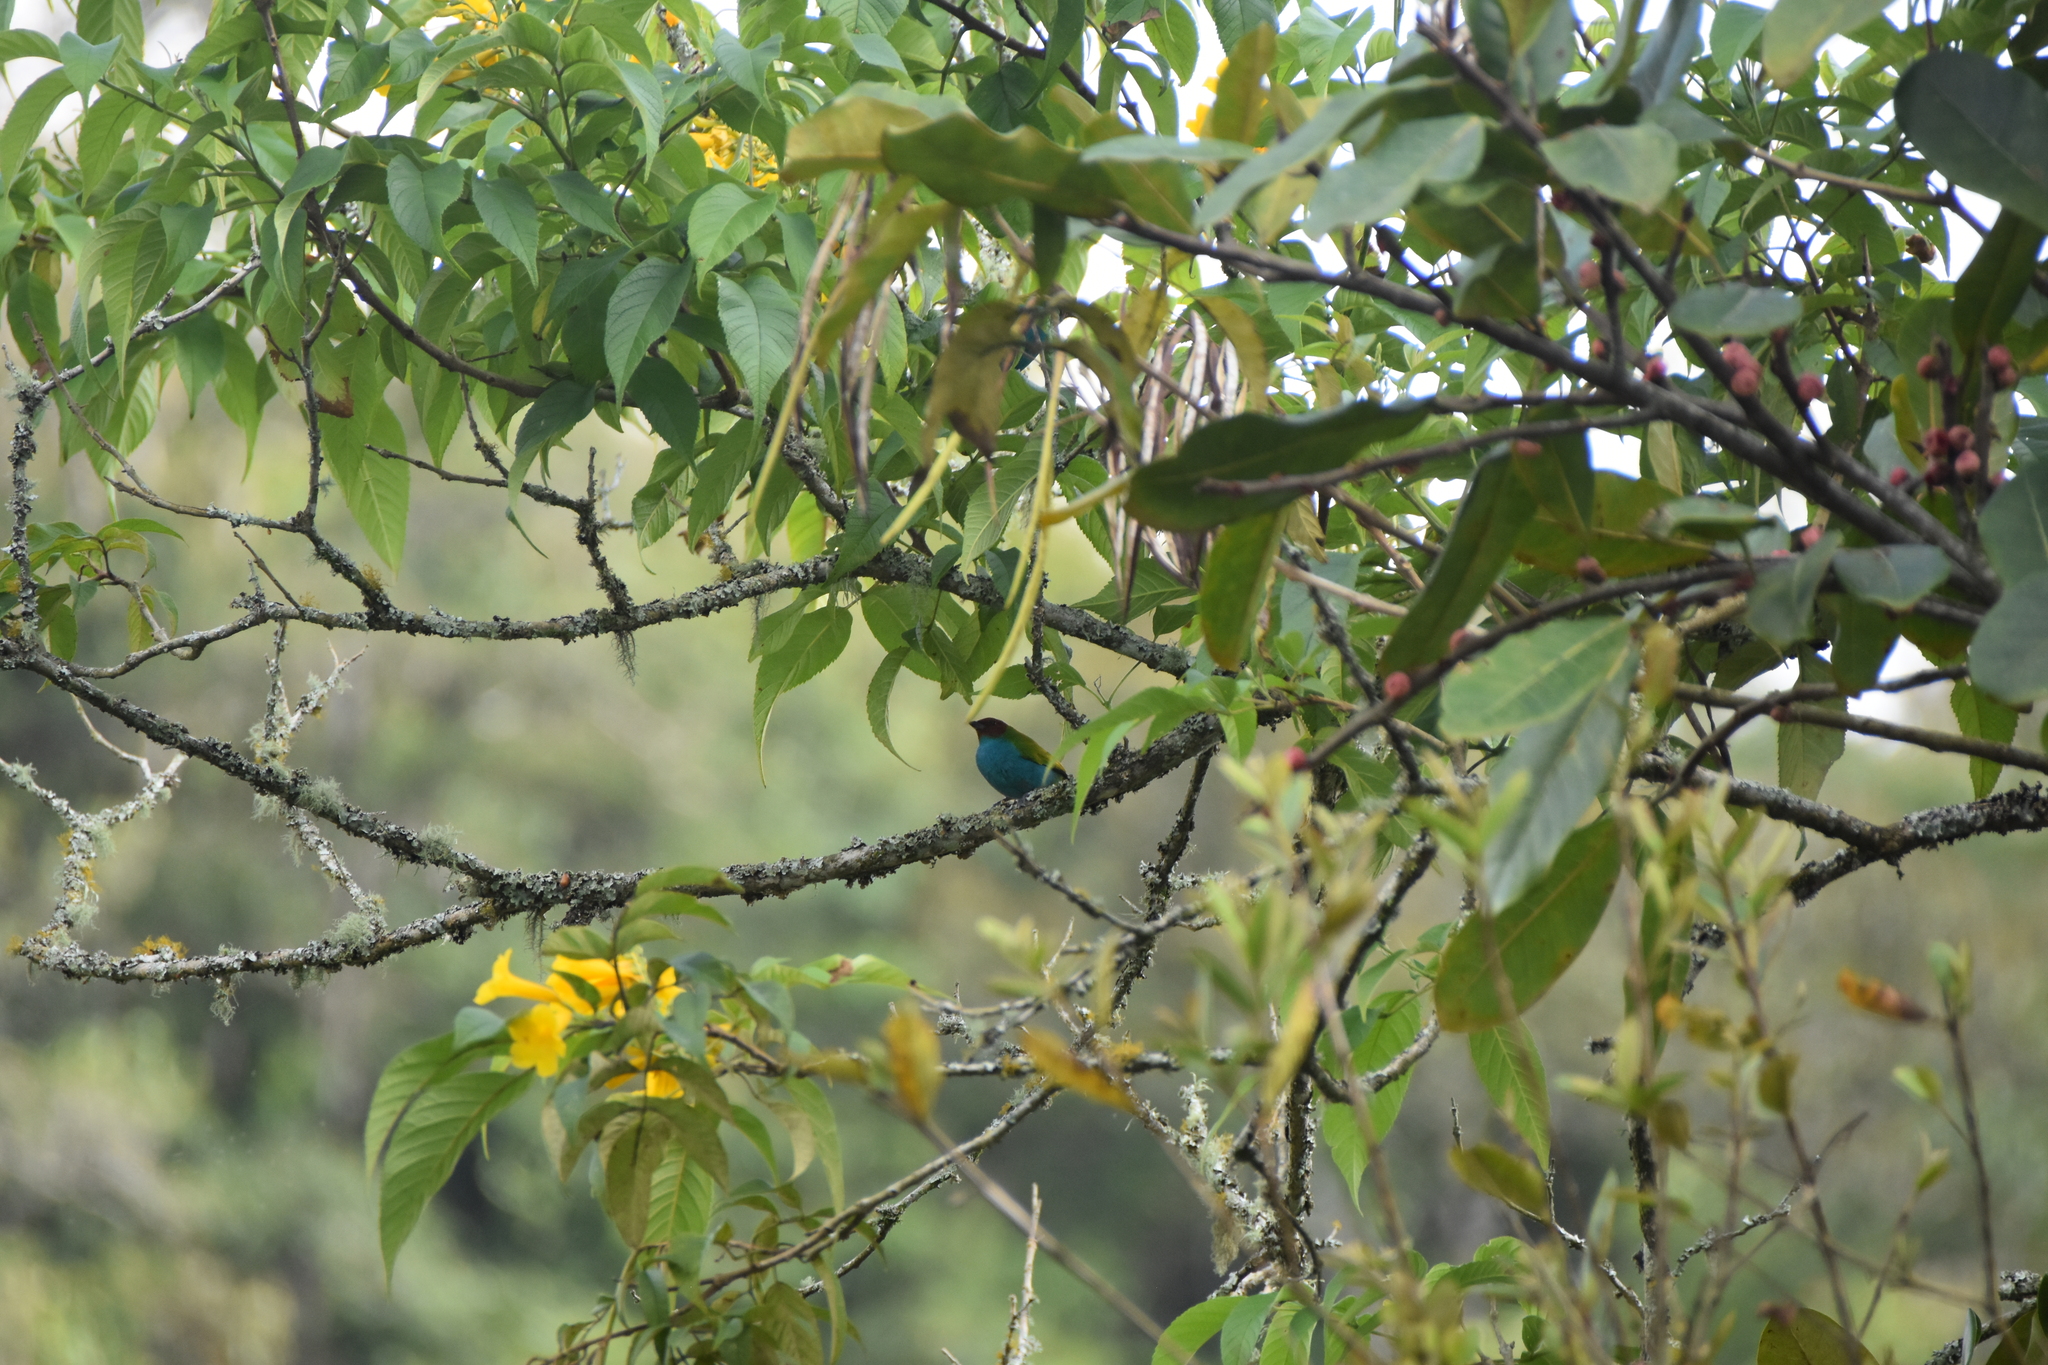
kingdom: Animalia
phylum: Chordata
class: Aves
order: Passeriformes
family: Thraupidae
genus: Tangara
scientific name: Tangara gyrola
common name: Bay-headed tanager
